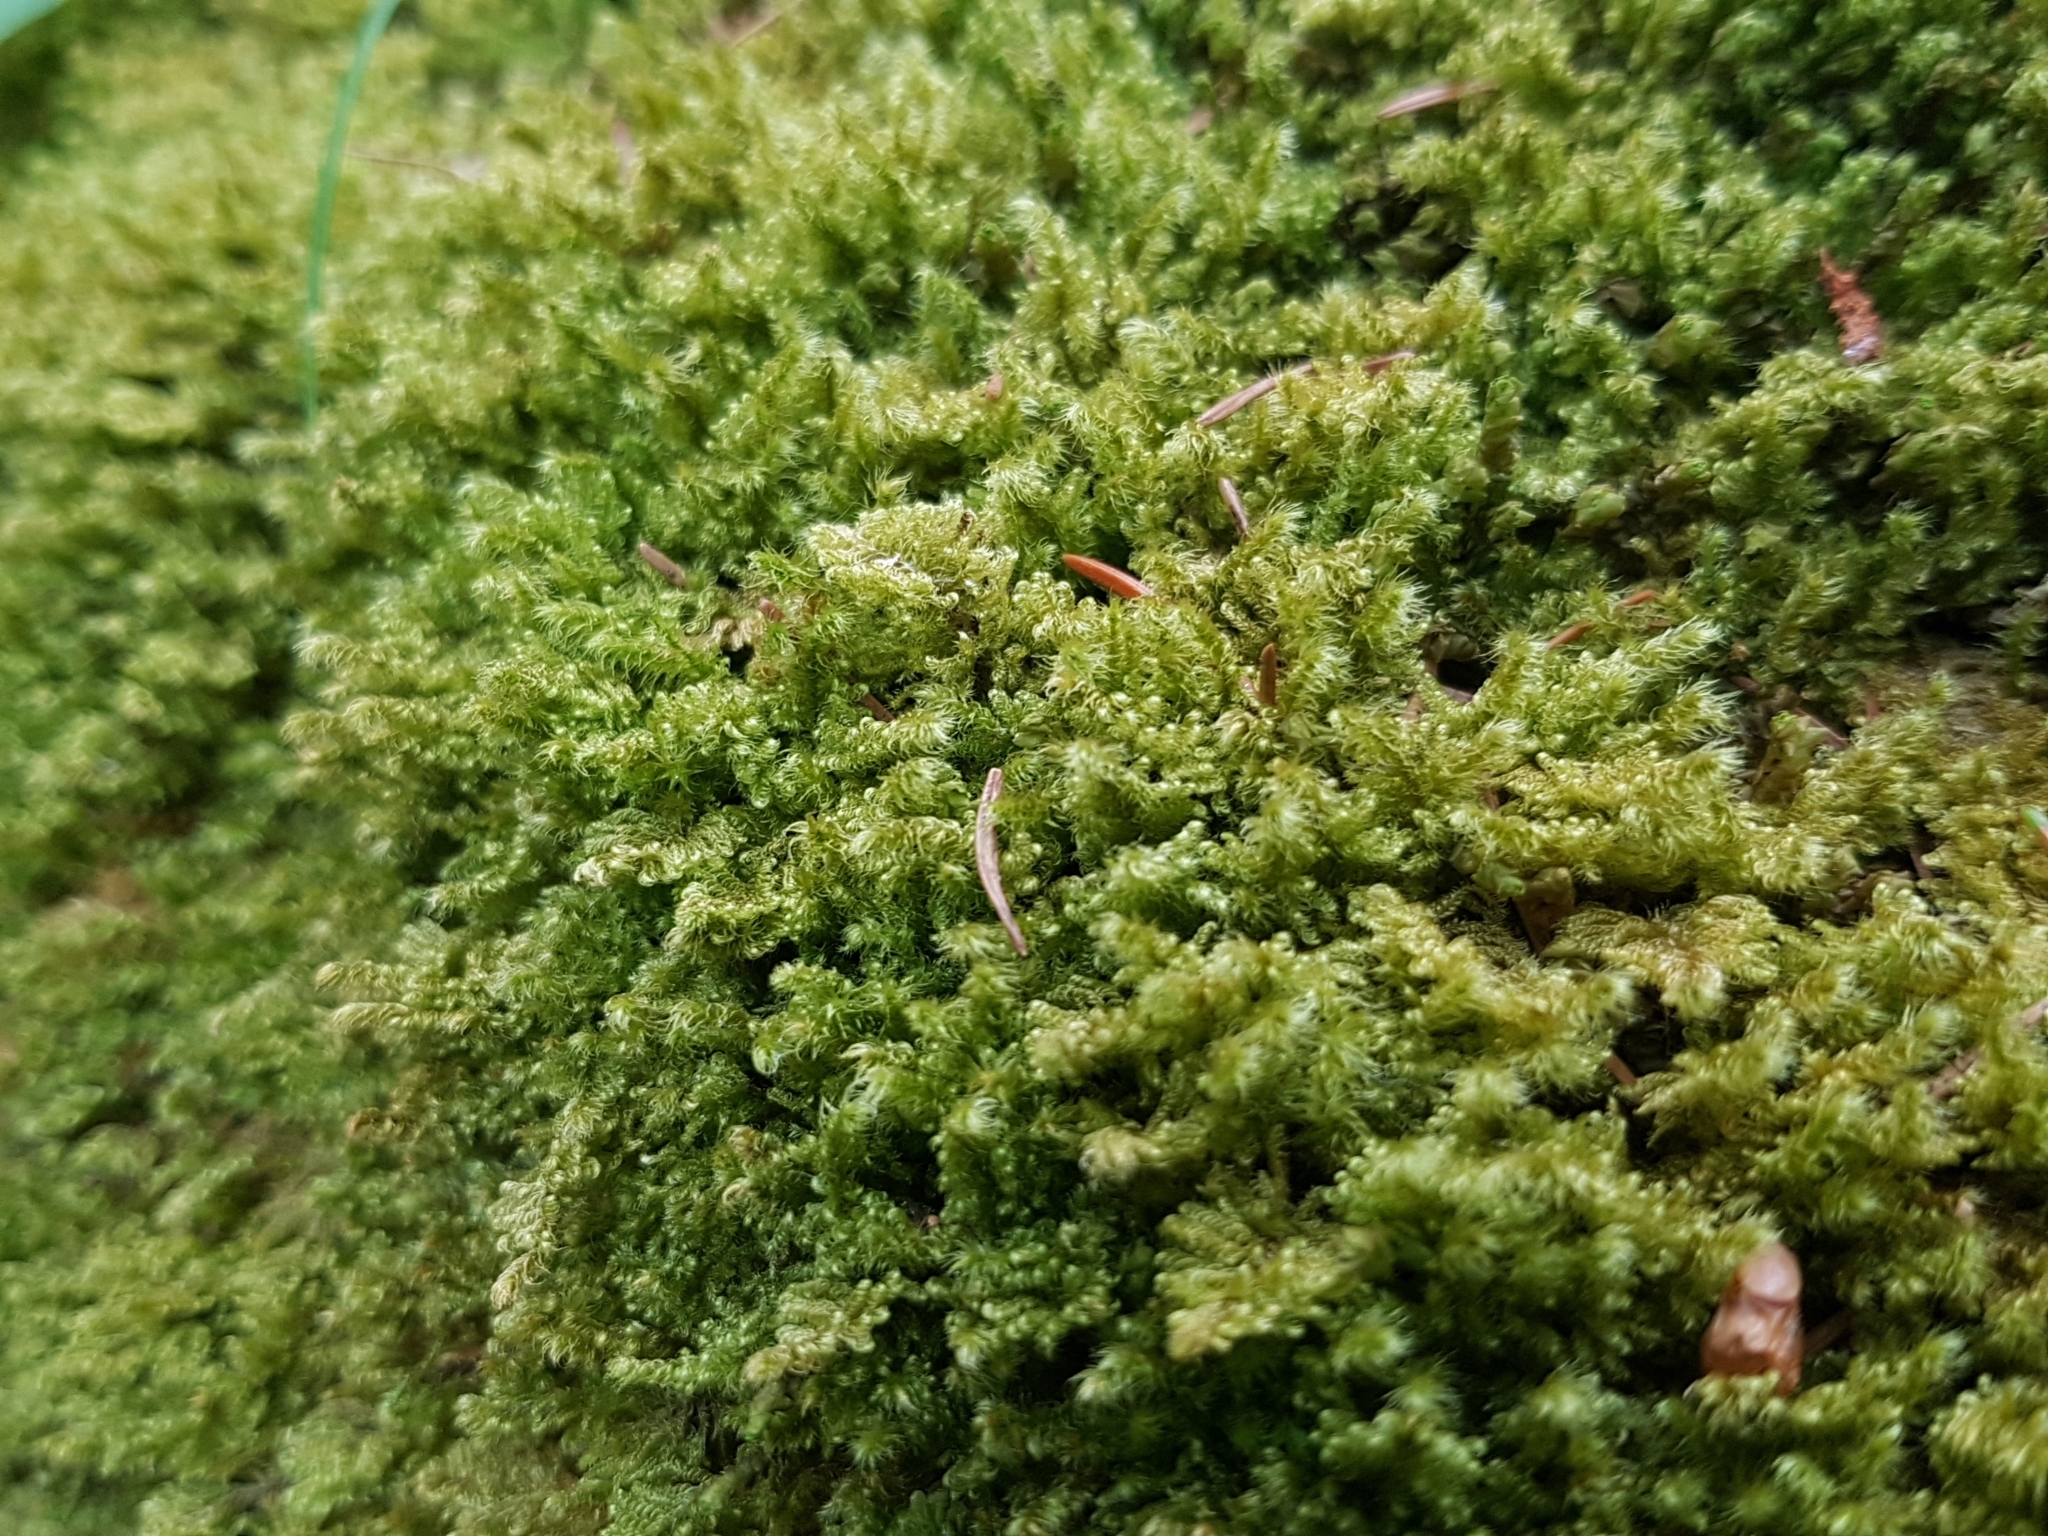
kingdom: Plantae
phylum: Bryophyta
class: Bryopsida
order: Hypnales
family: Myuriaceae
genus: Ctenidium
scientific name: Ctenidium molluscum
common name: Chalk comb-moss
